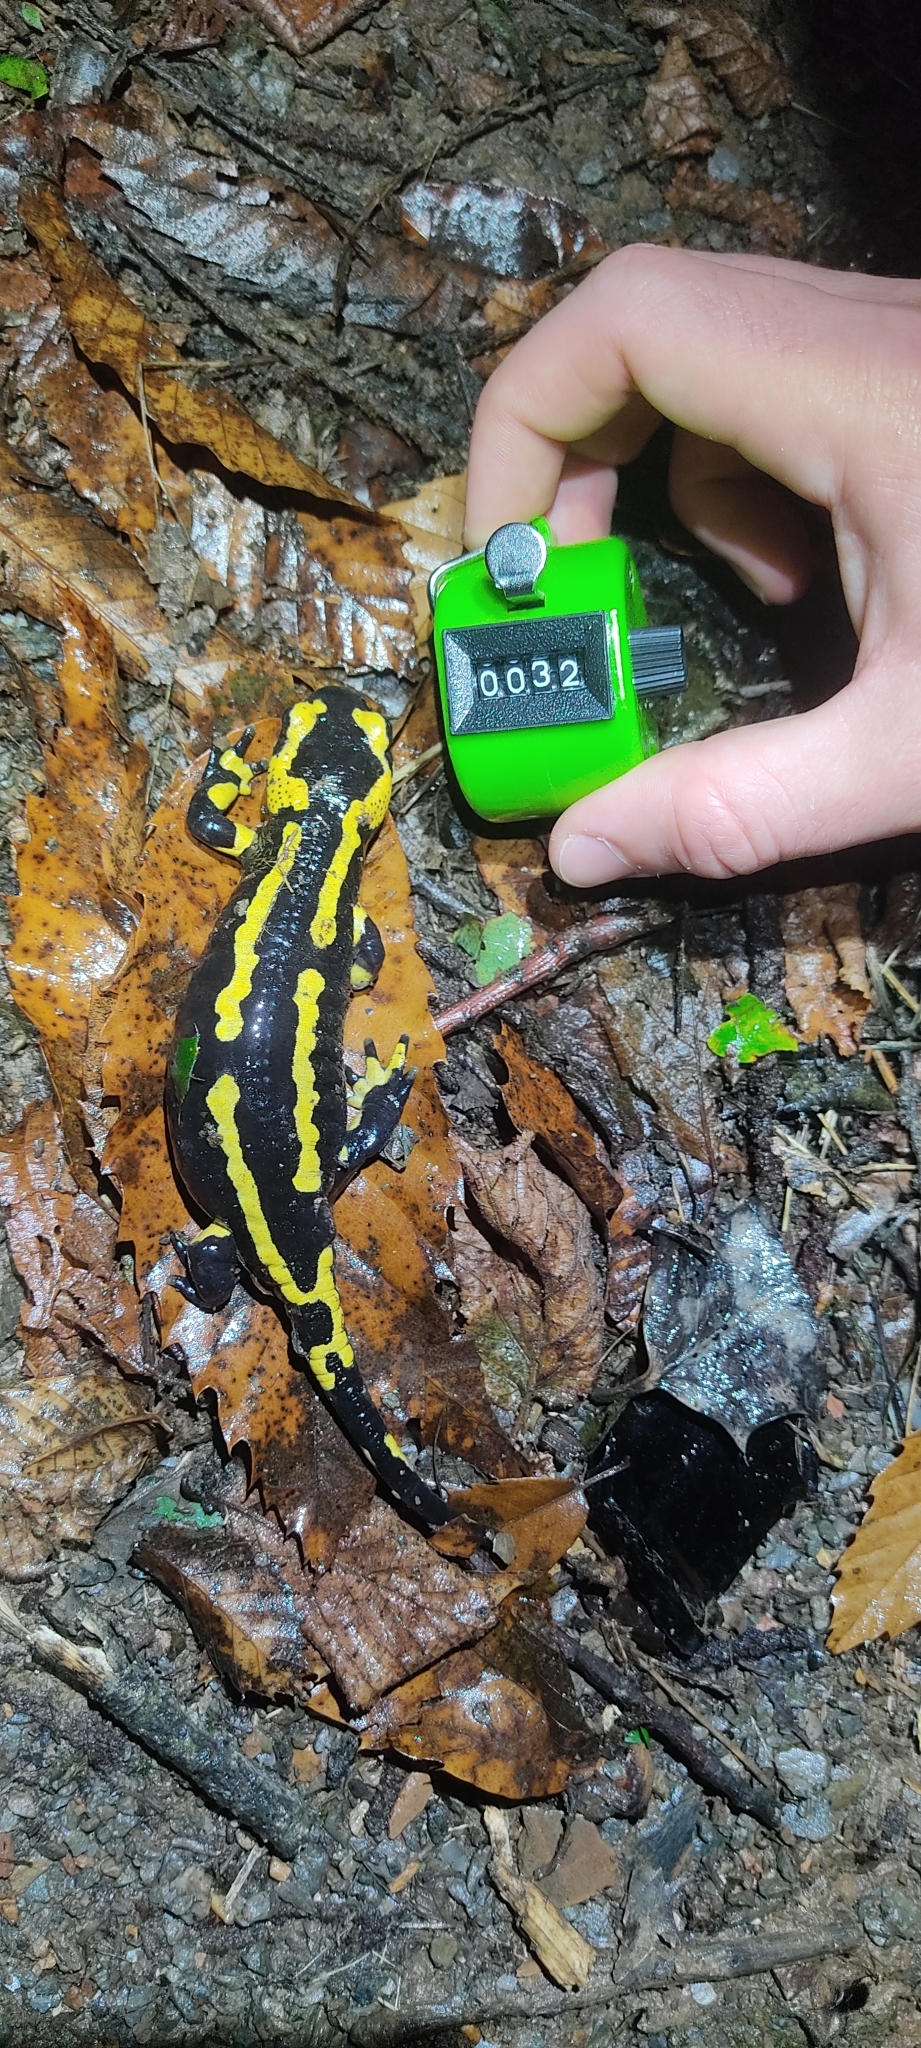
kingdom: Animalia
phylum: Chordata
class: Amphibia
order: Caudata
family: Salamandridae
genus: Salamandra
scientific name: Salamandra salamandra
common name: Fire salamander
